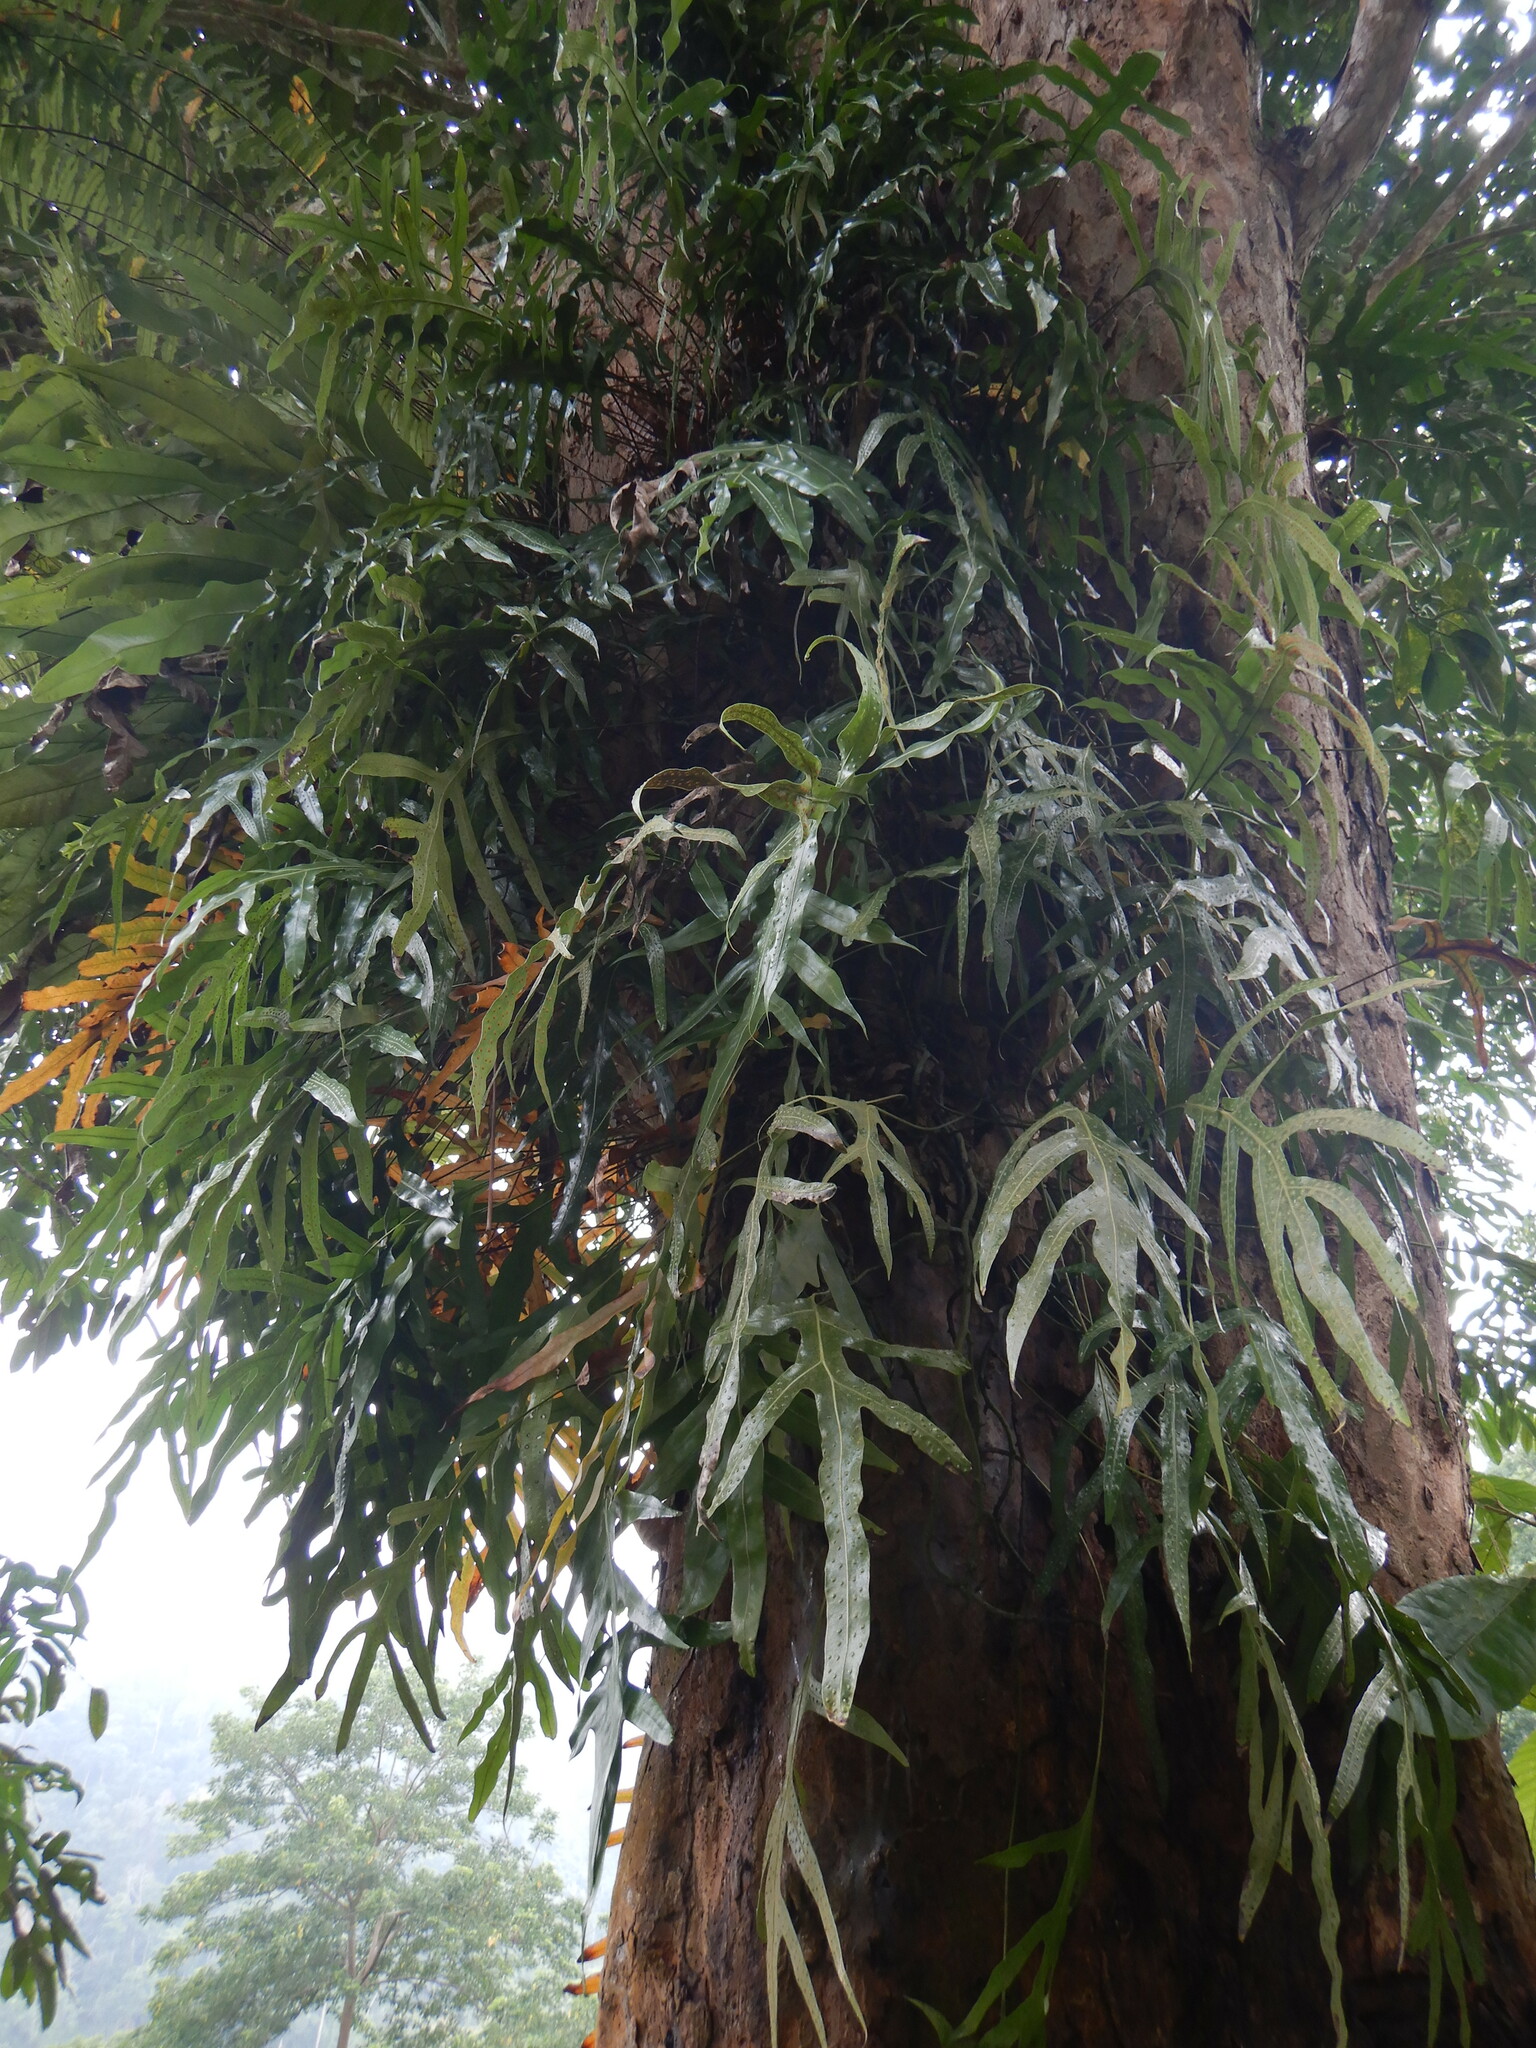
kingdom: Plantae
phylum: Tracheophyta
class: Polypodiopsida
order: Polypodiales
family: Polypodiaceae
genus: Microsorum
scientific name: Microsorum scolopendria
